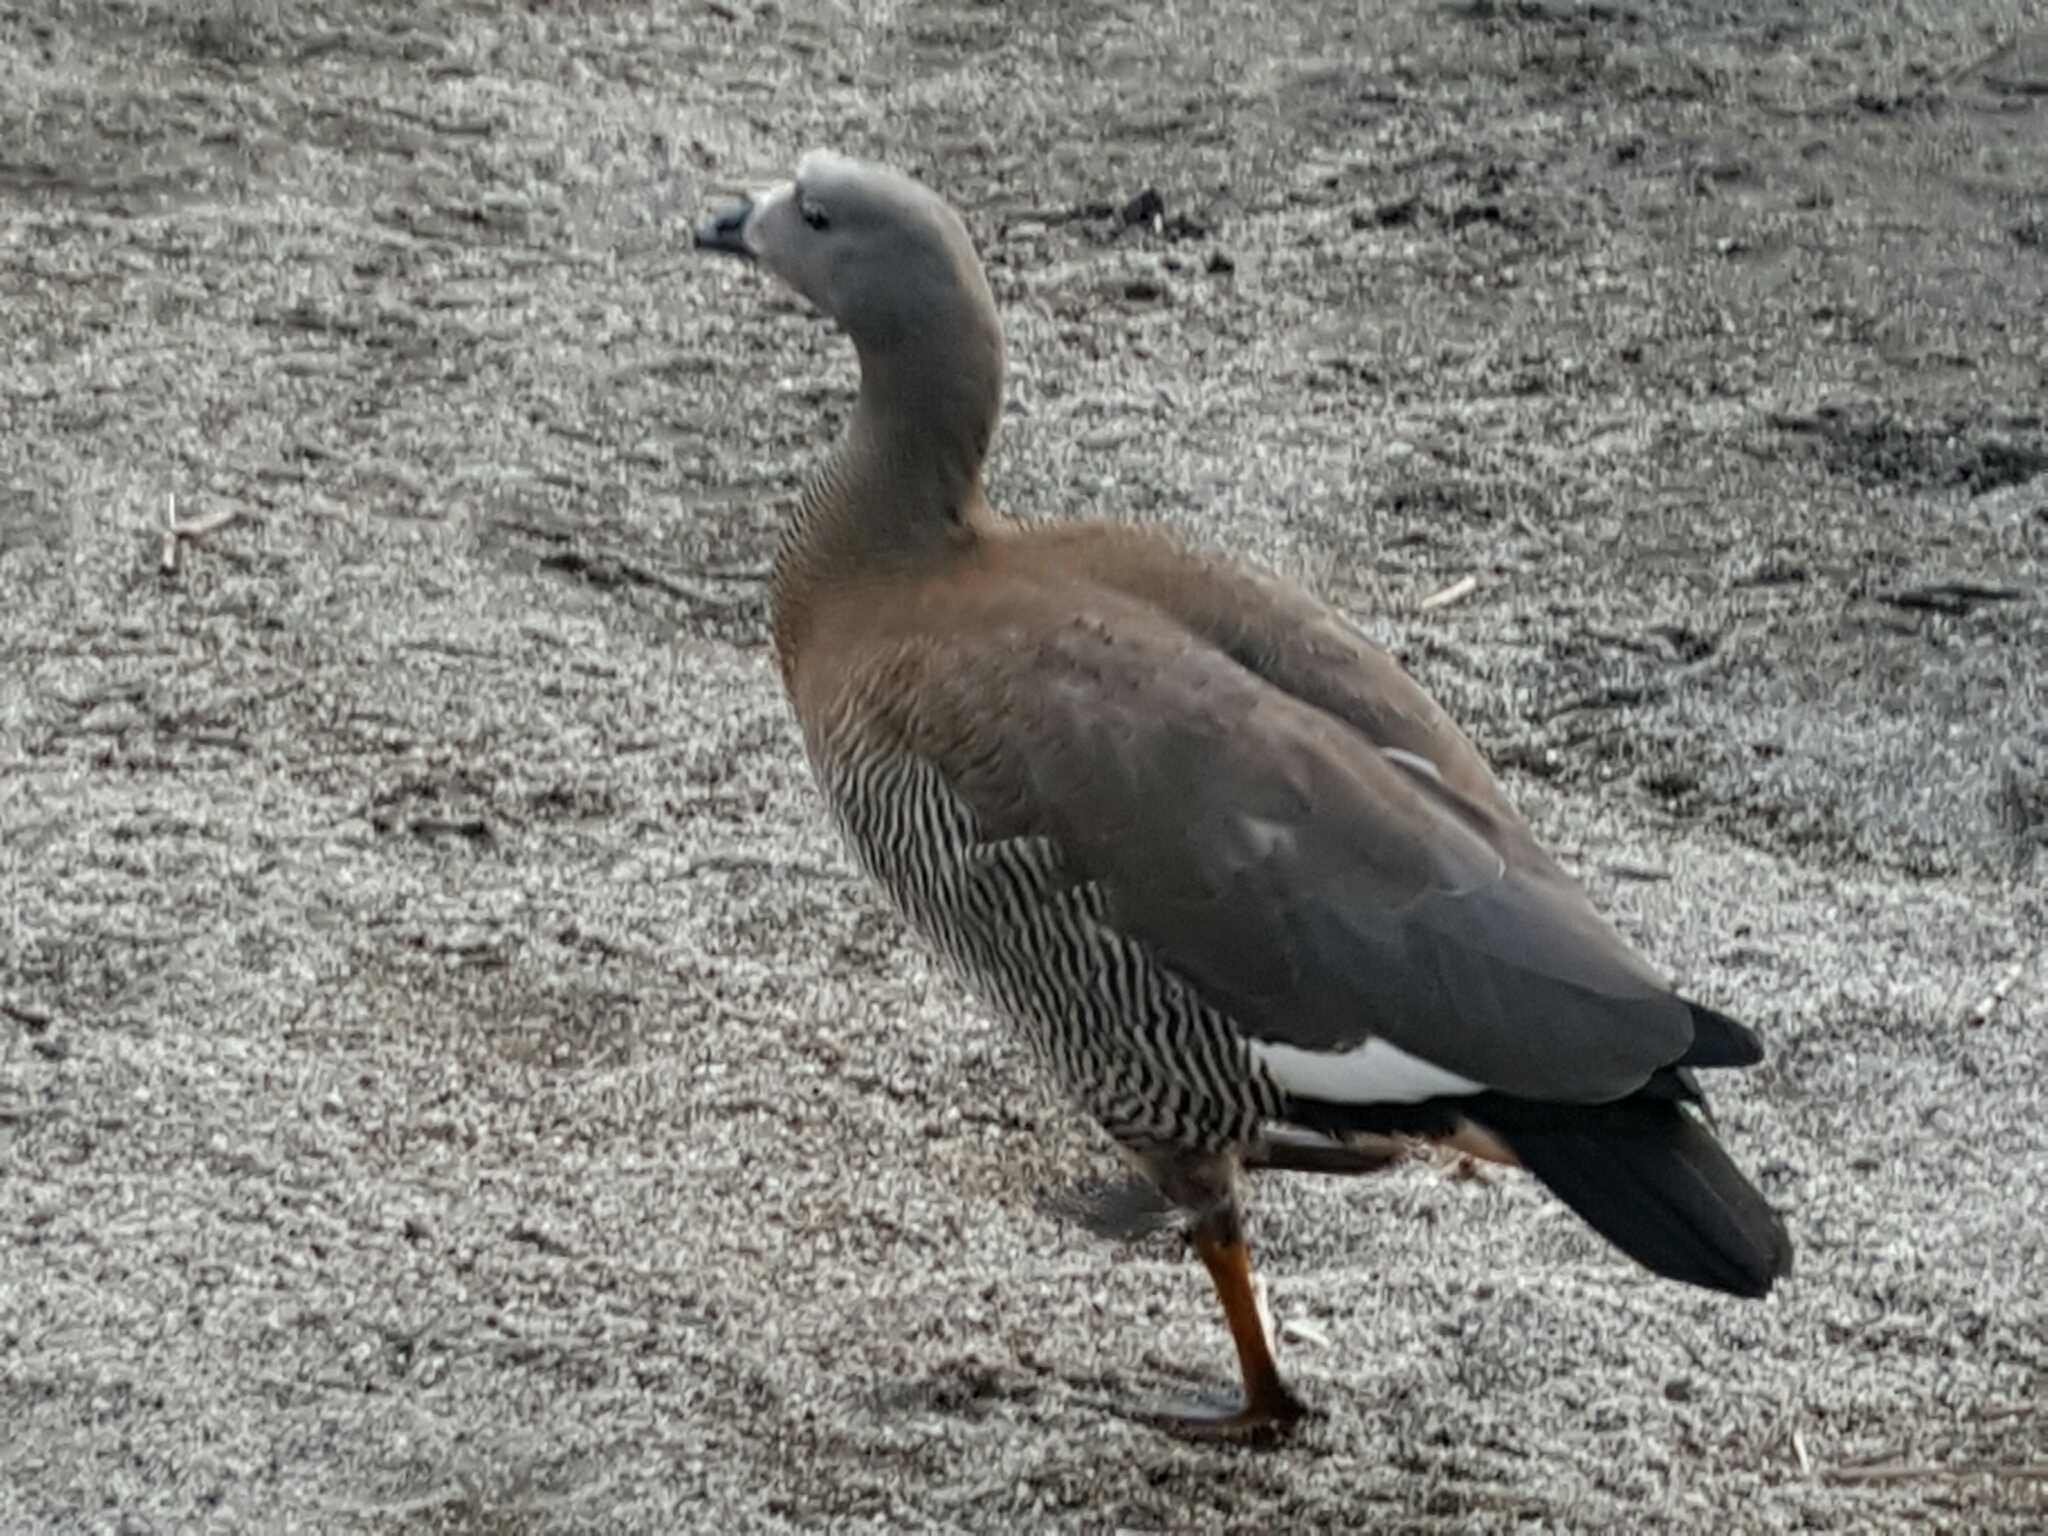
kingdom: Animalia
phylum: Chordata
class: Aves
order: Anseriformes
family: Anatidae
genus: Chloephaga
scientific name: Chloephaga poliocephala
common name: Ashy-headed goose
